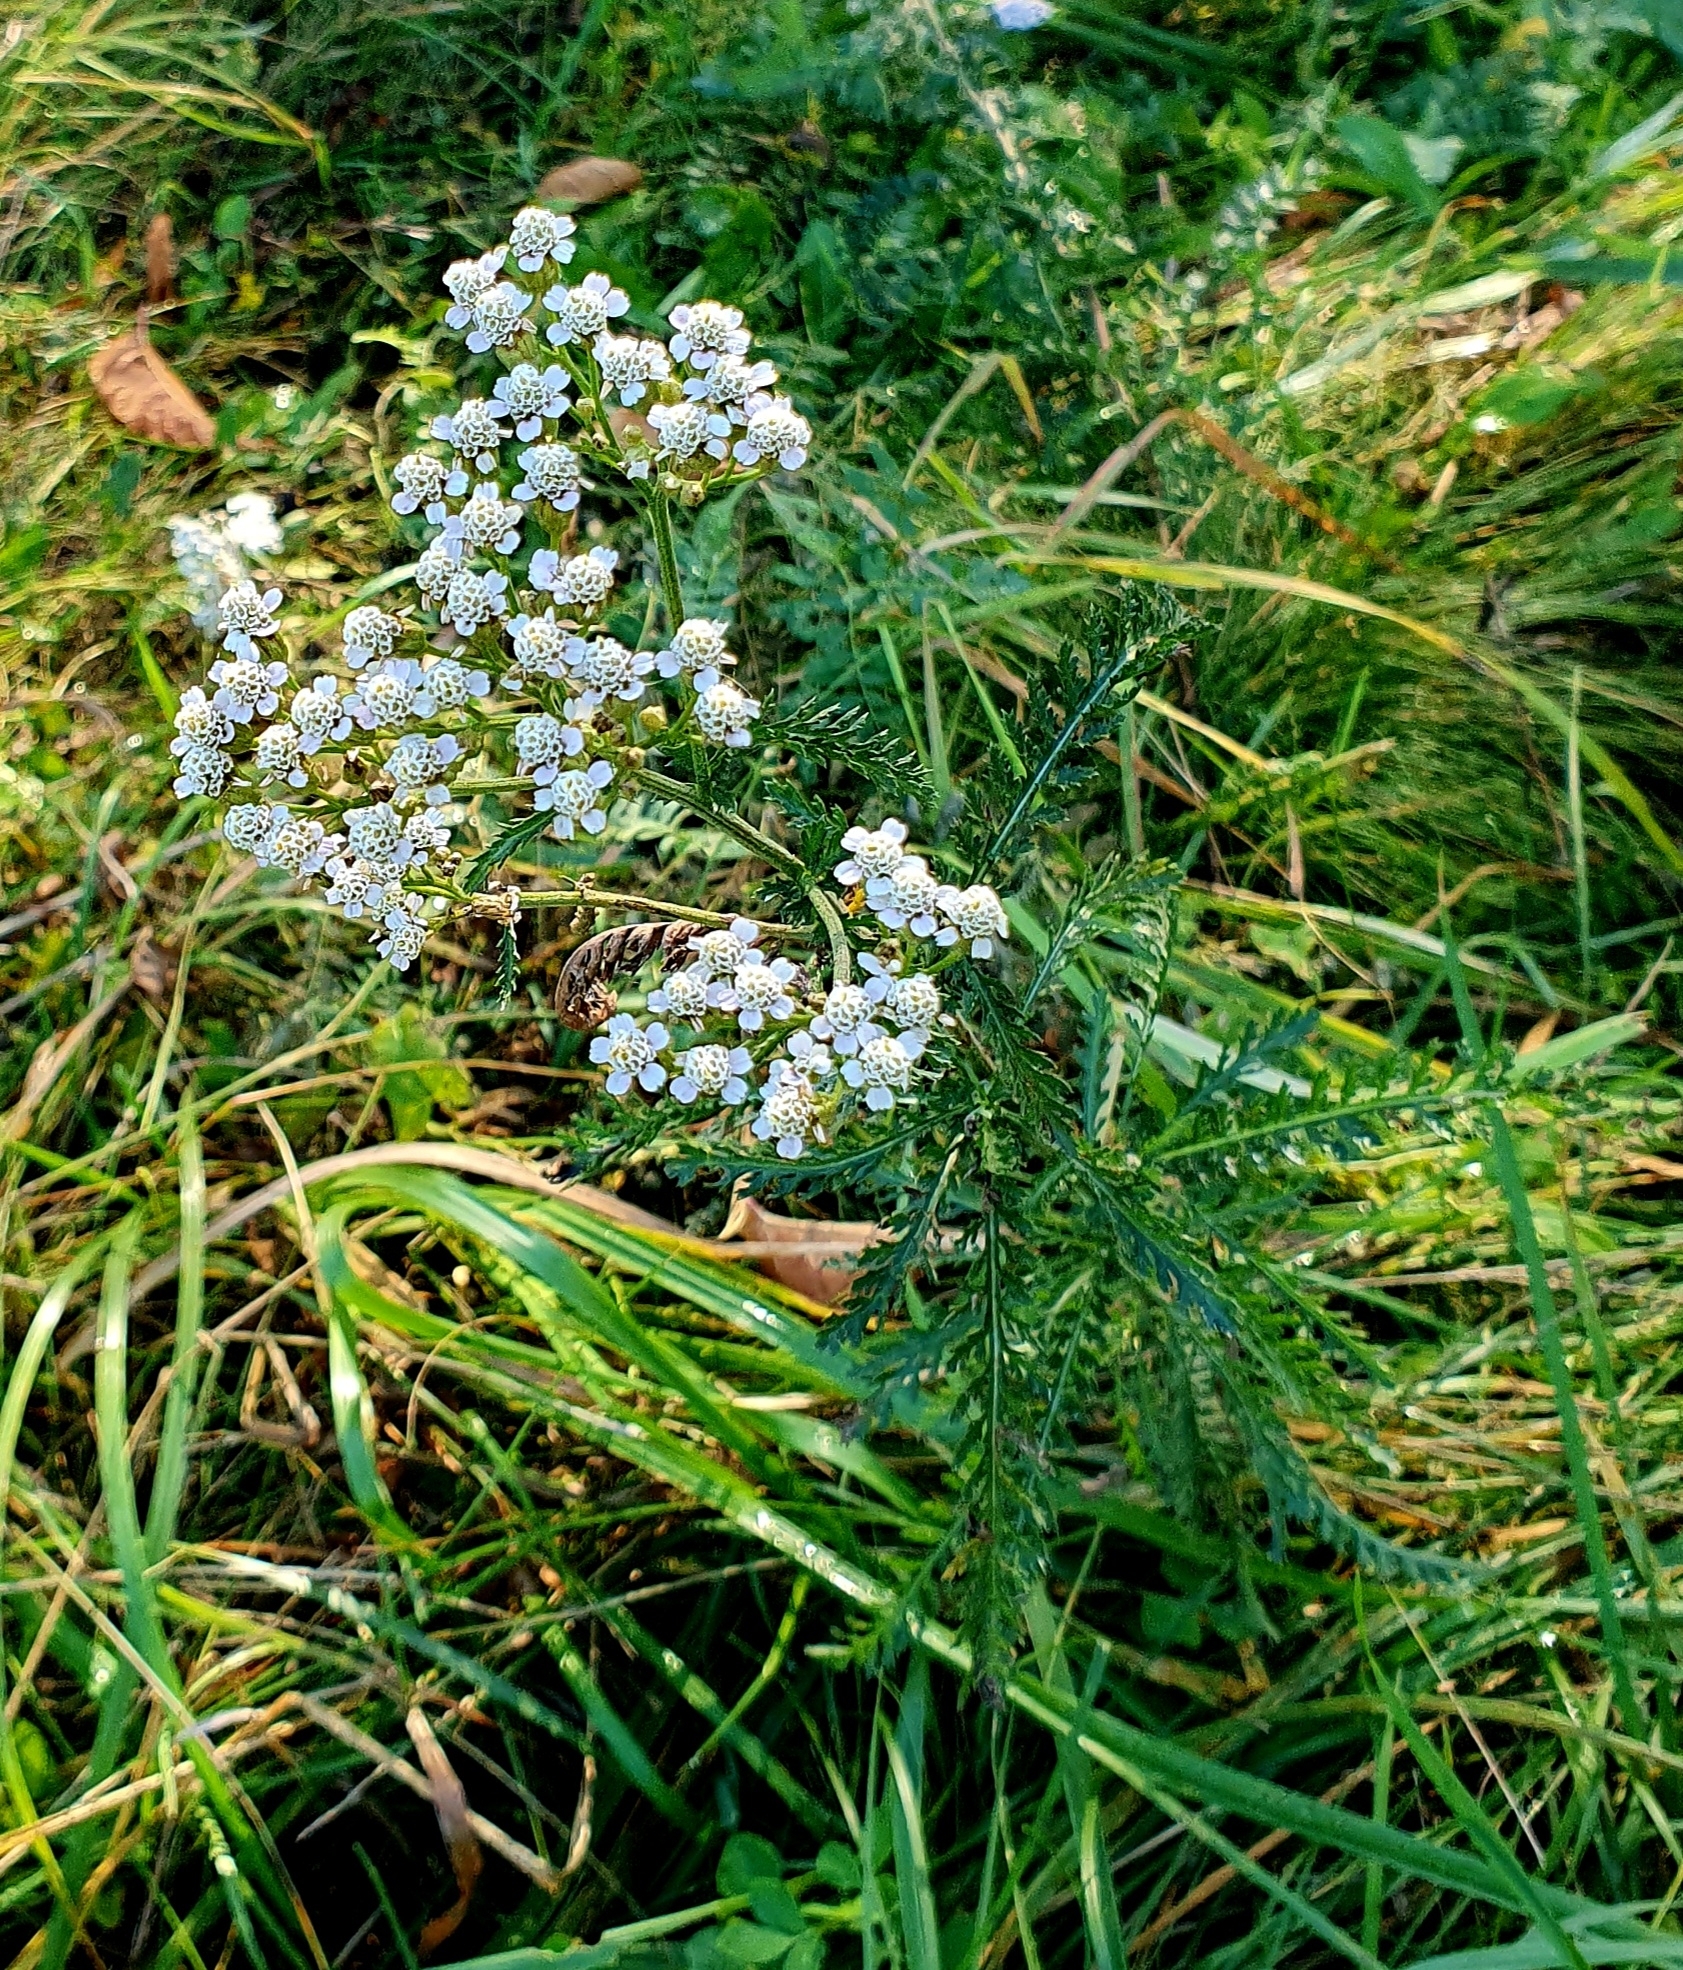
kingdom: Plantae
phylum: Tracheophyta
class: Magnoliopsida
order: Asterales
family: Asteraceae
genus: Achillea
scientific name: Achillea millefolium
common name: Yarrow
